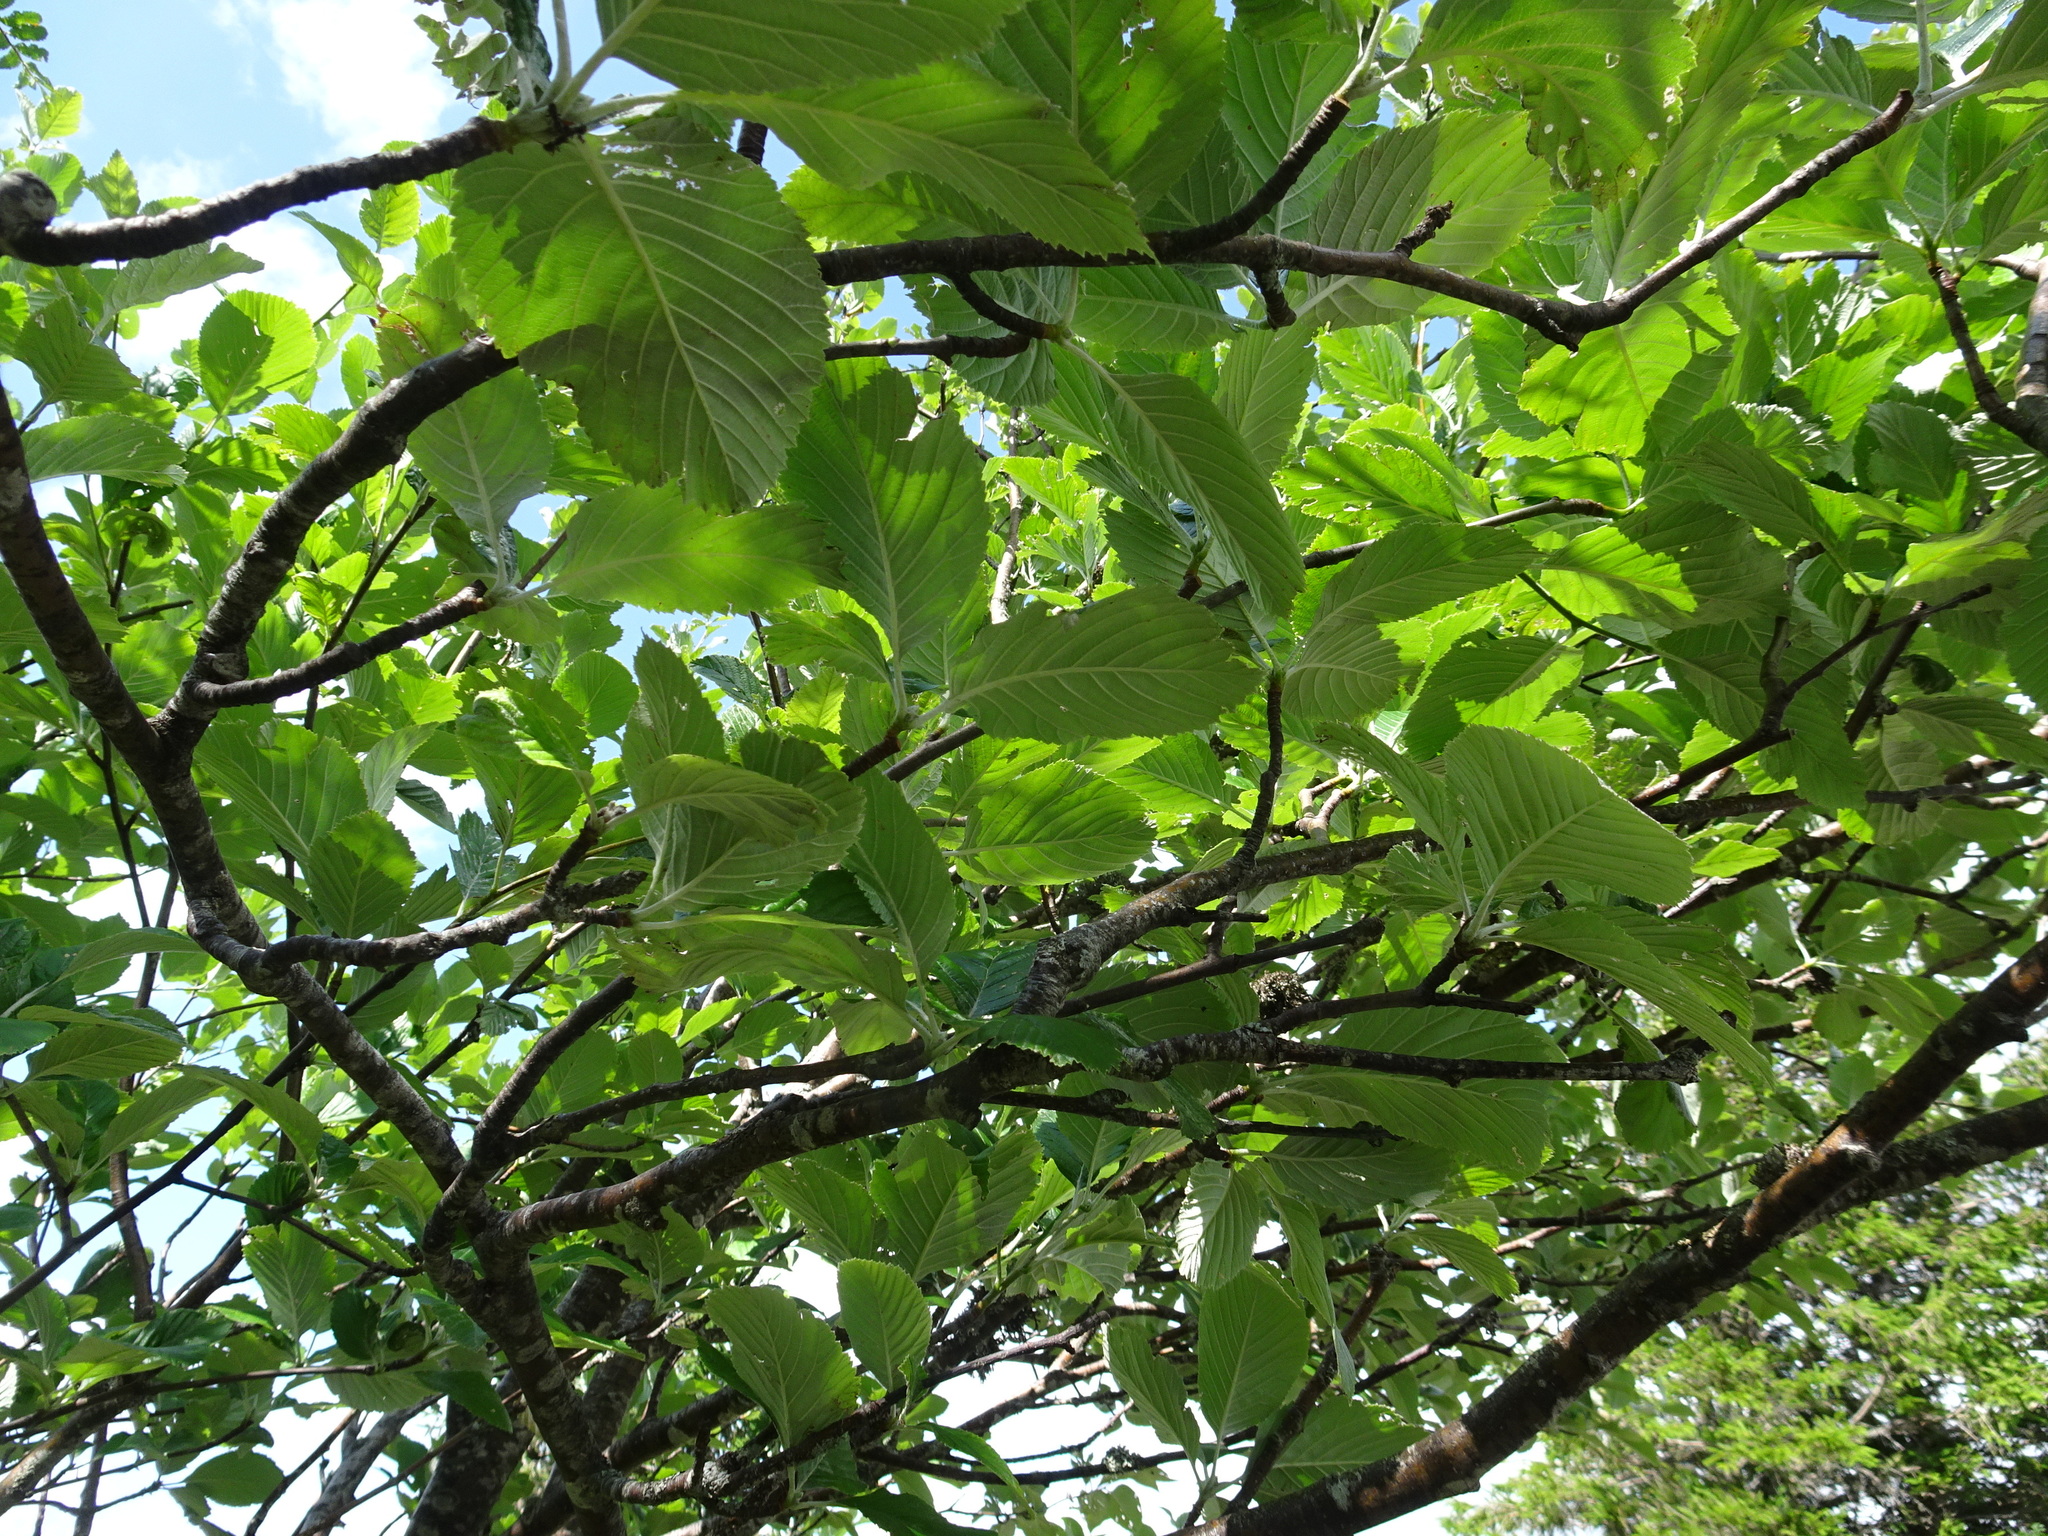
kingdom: Plantae
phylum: Tracheophyta
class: Magnoliopsida
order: Rosales
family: Rosaceae
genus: Aria
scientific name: Aria edulis
